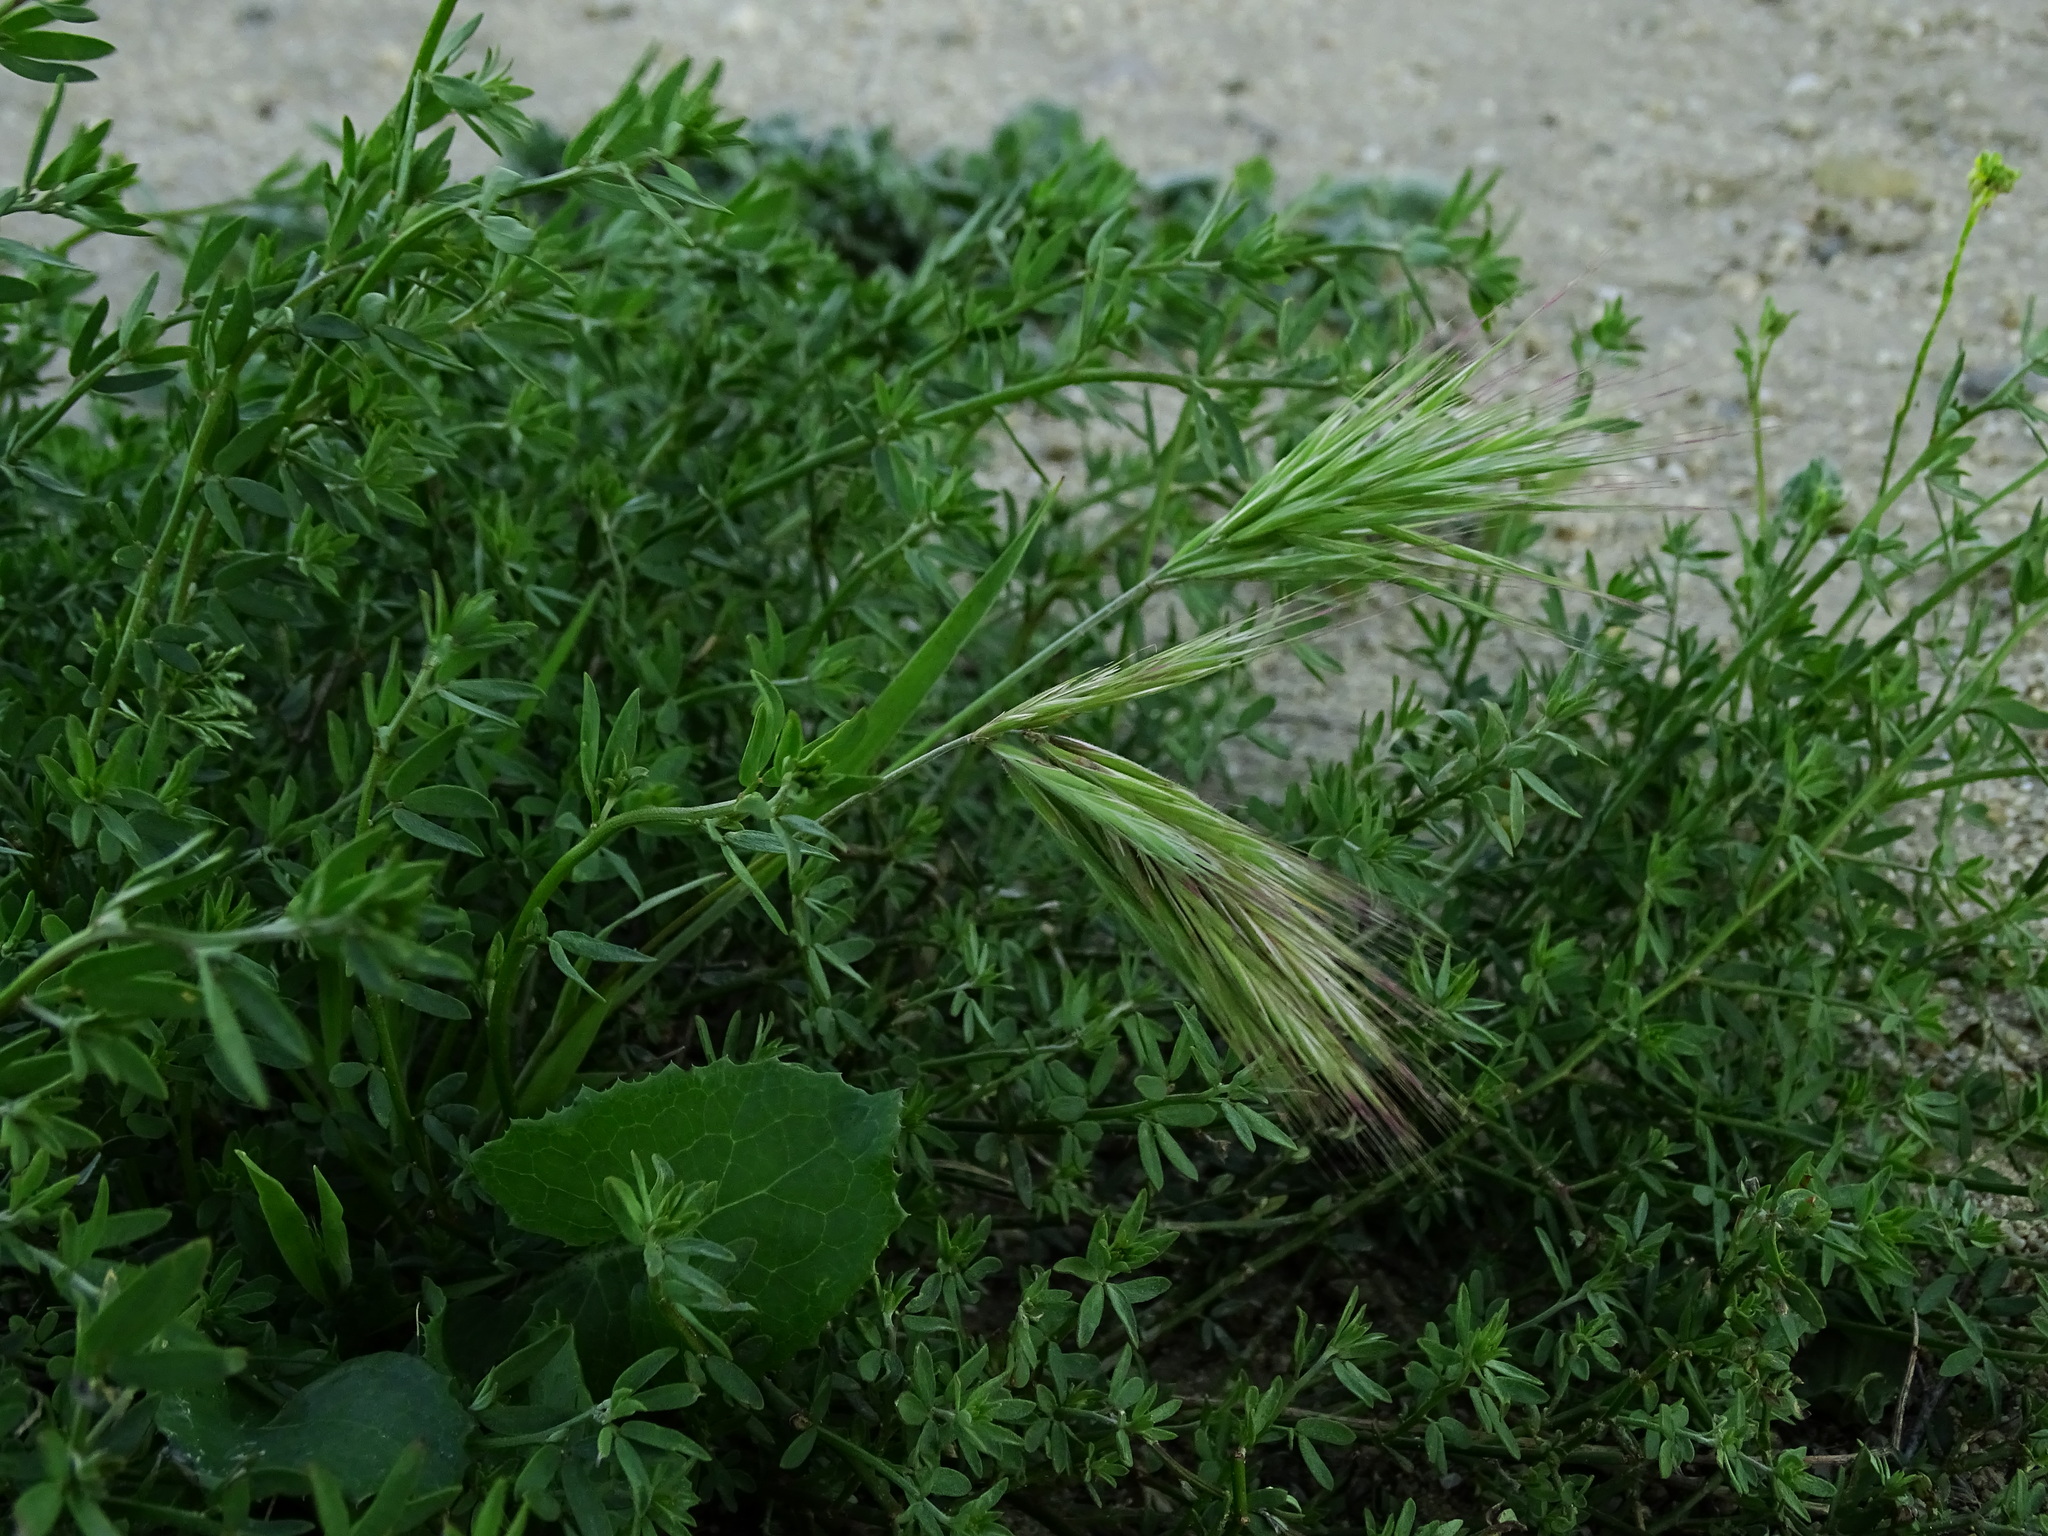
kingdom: Plantae
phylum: Tracheophyta
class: Liliopsida
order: Poales
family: Poaceae
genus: Bromus
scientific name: Bromus madritensis
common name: Compact brome
